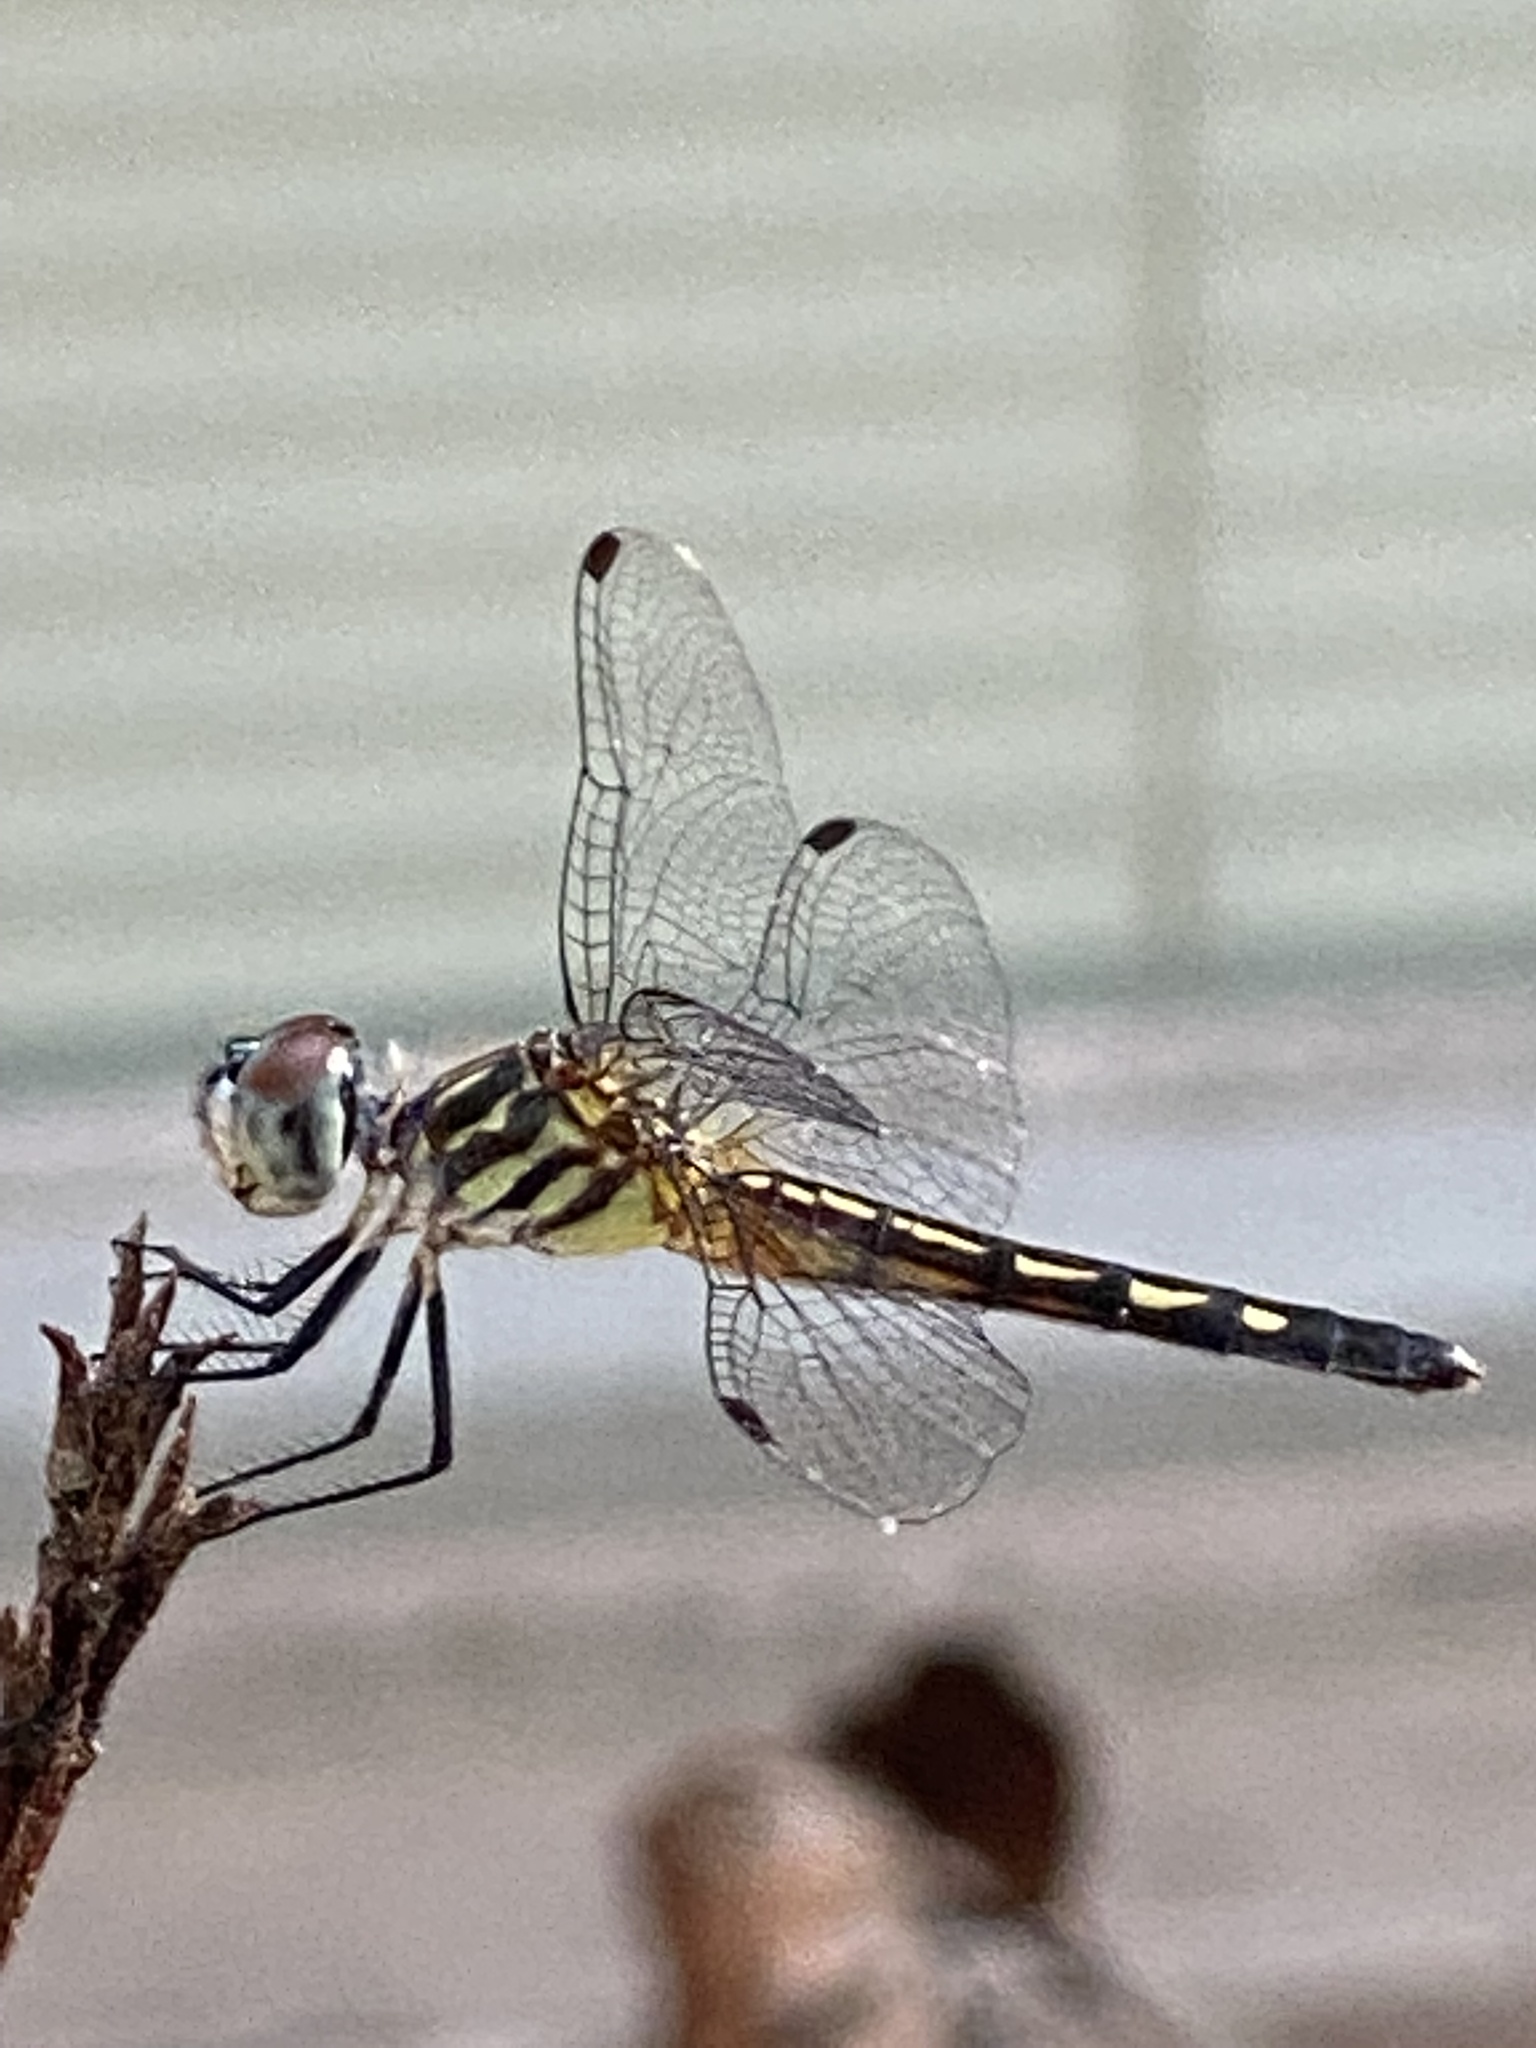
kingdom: Animalia
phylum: Arthropoda
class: Insecta
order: Odonata
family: Libellulidae
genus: Pachydiplax
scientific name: Pachydiplax longipennis
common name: Blue dasher
